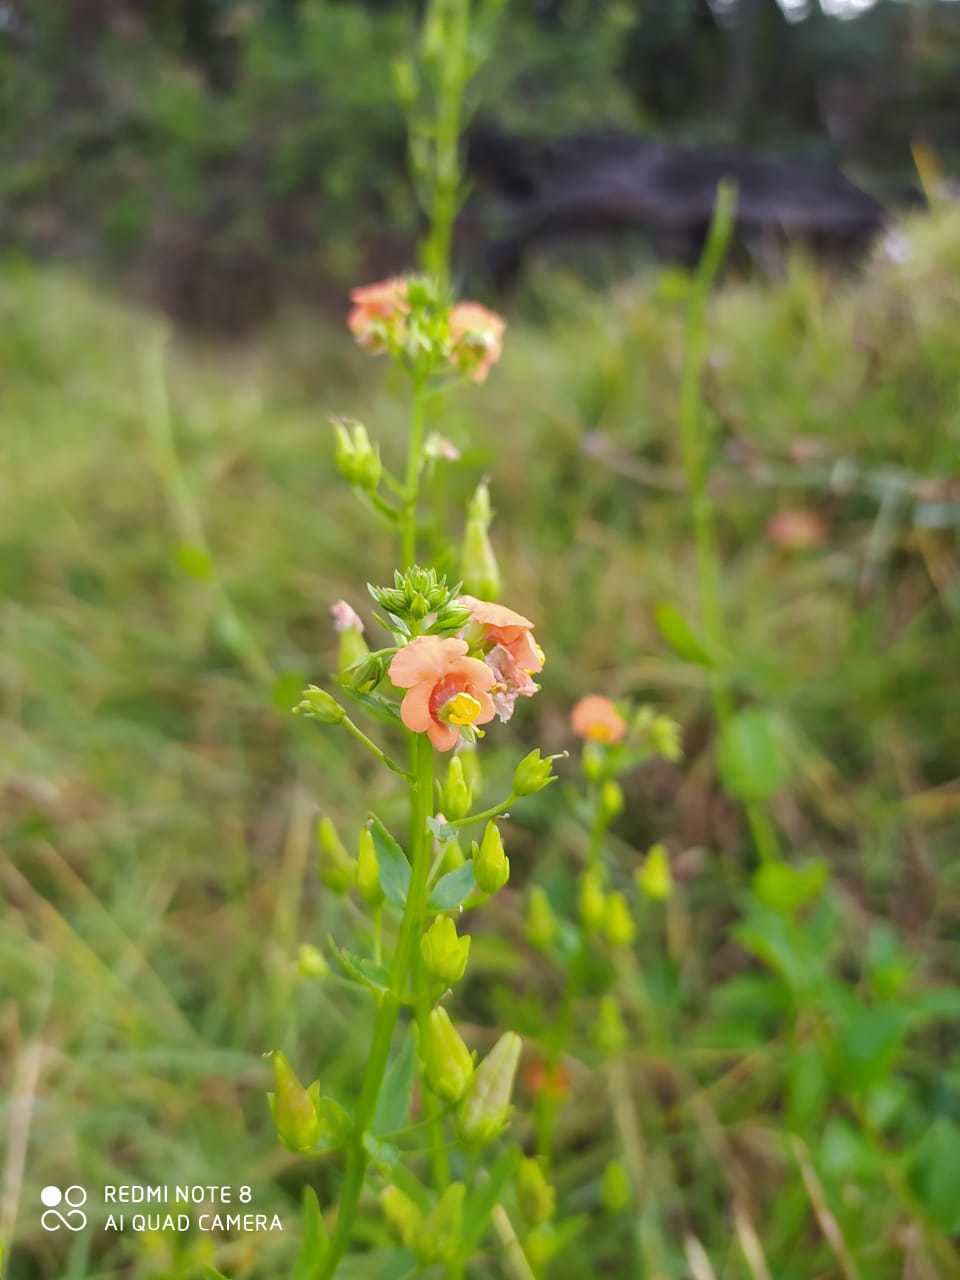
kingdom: Plantae
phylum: Tracheophyta
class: Magnoliopsida
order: Lamiales
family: Scrophulariaceae
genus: Alonsoa
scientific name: Alonsoa meridionalis
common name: Maskflower
